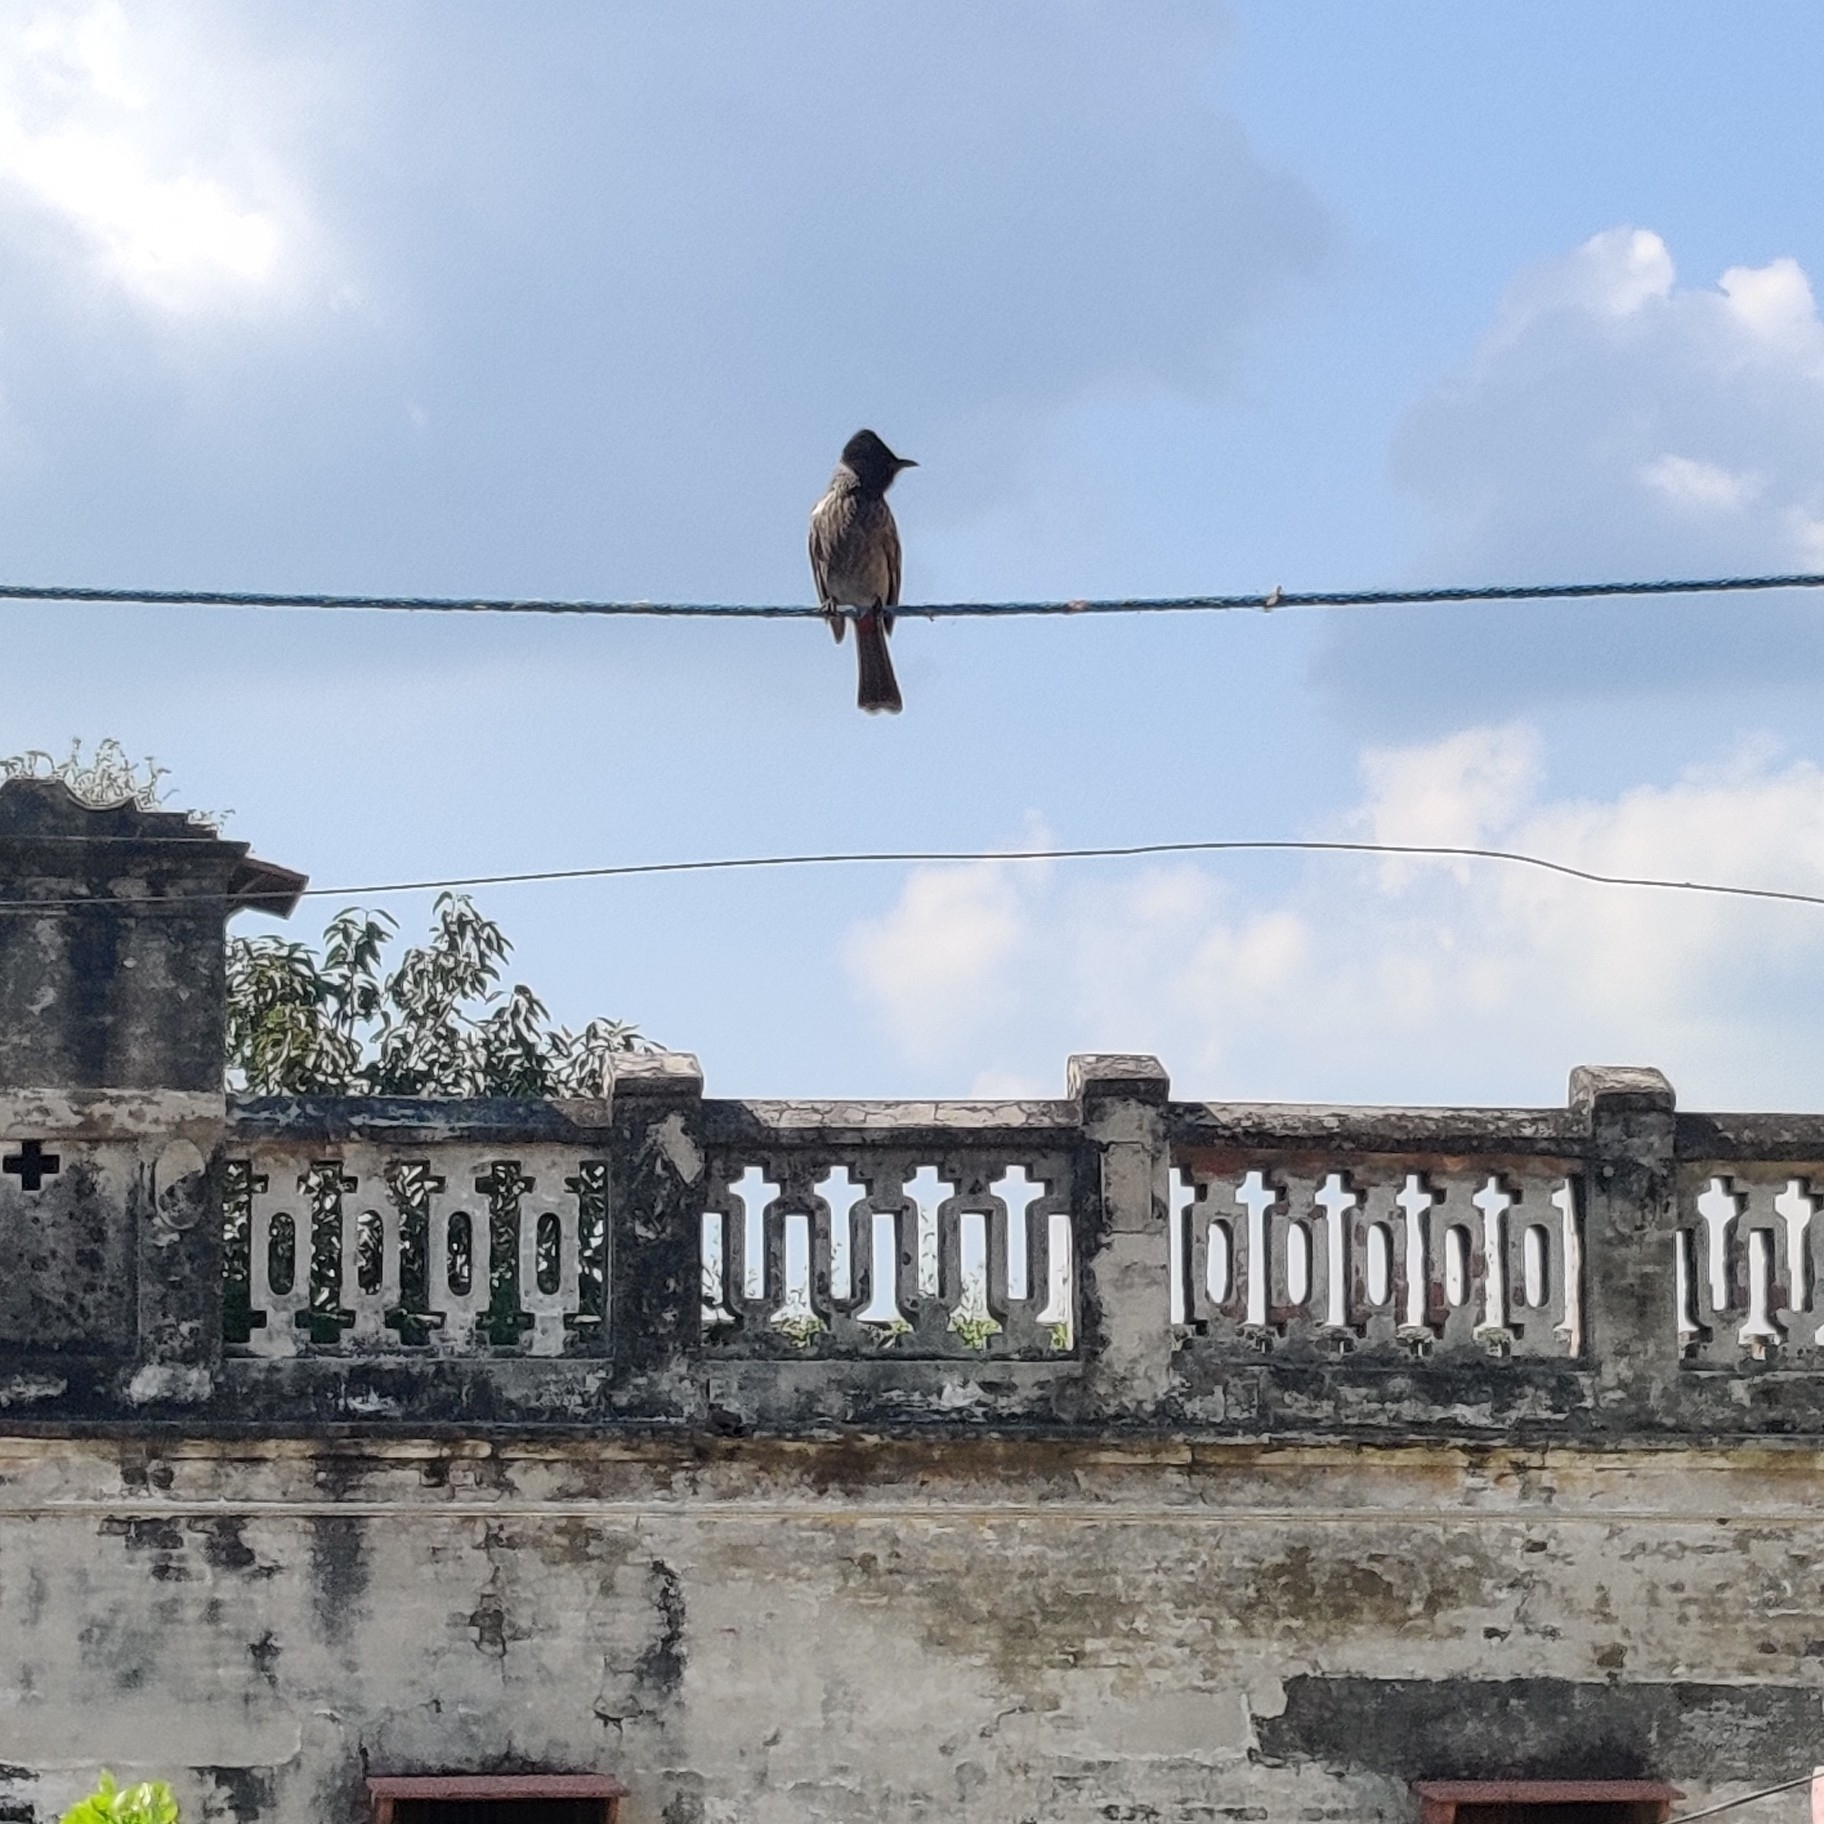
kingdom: Animalia
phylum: Chordata
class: Aves
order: Passeriformes
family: Pycnonotidae
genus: Pycnonotus
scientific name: Pycnonotus cafer
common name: Red-vented bulbul
